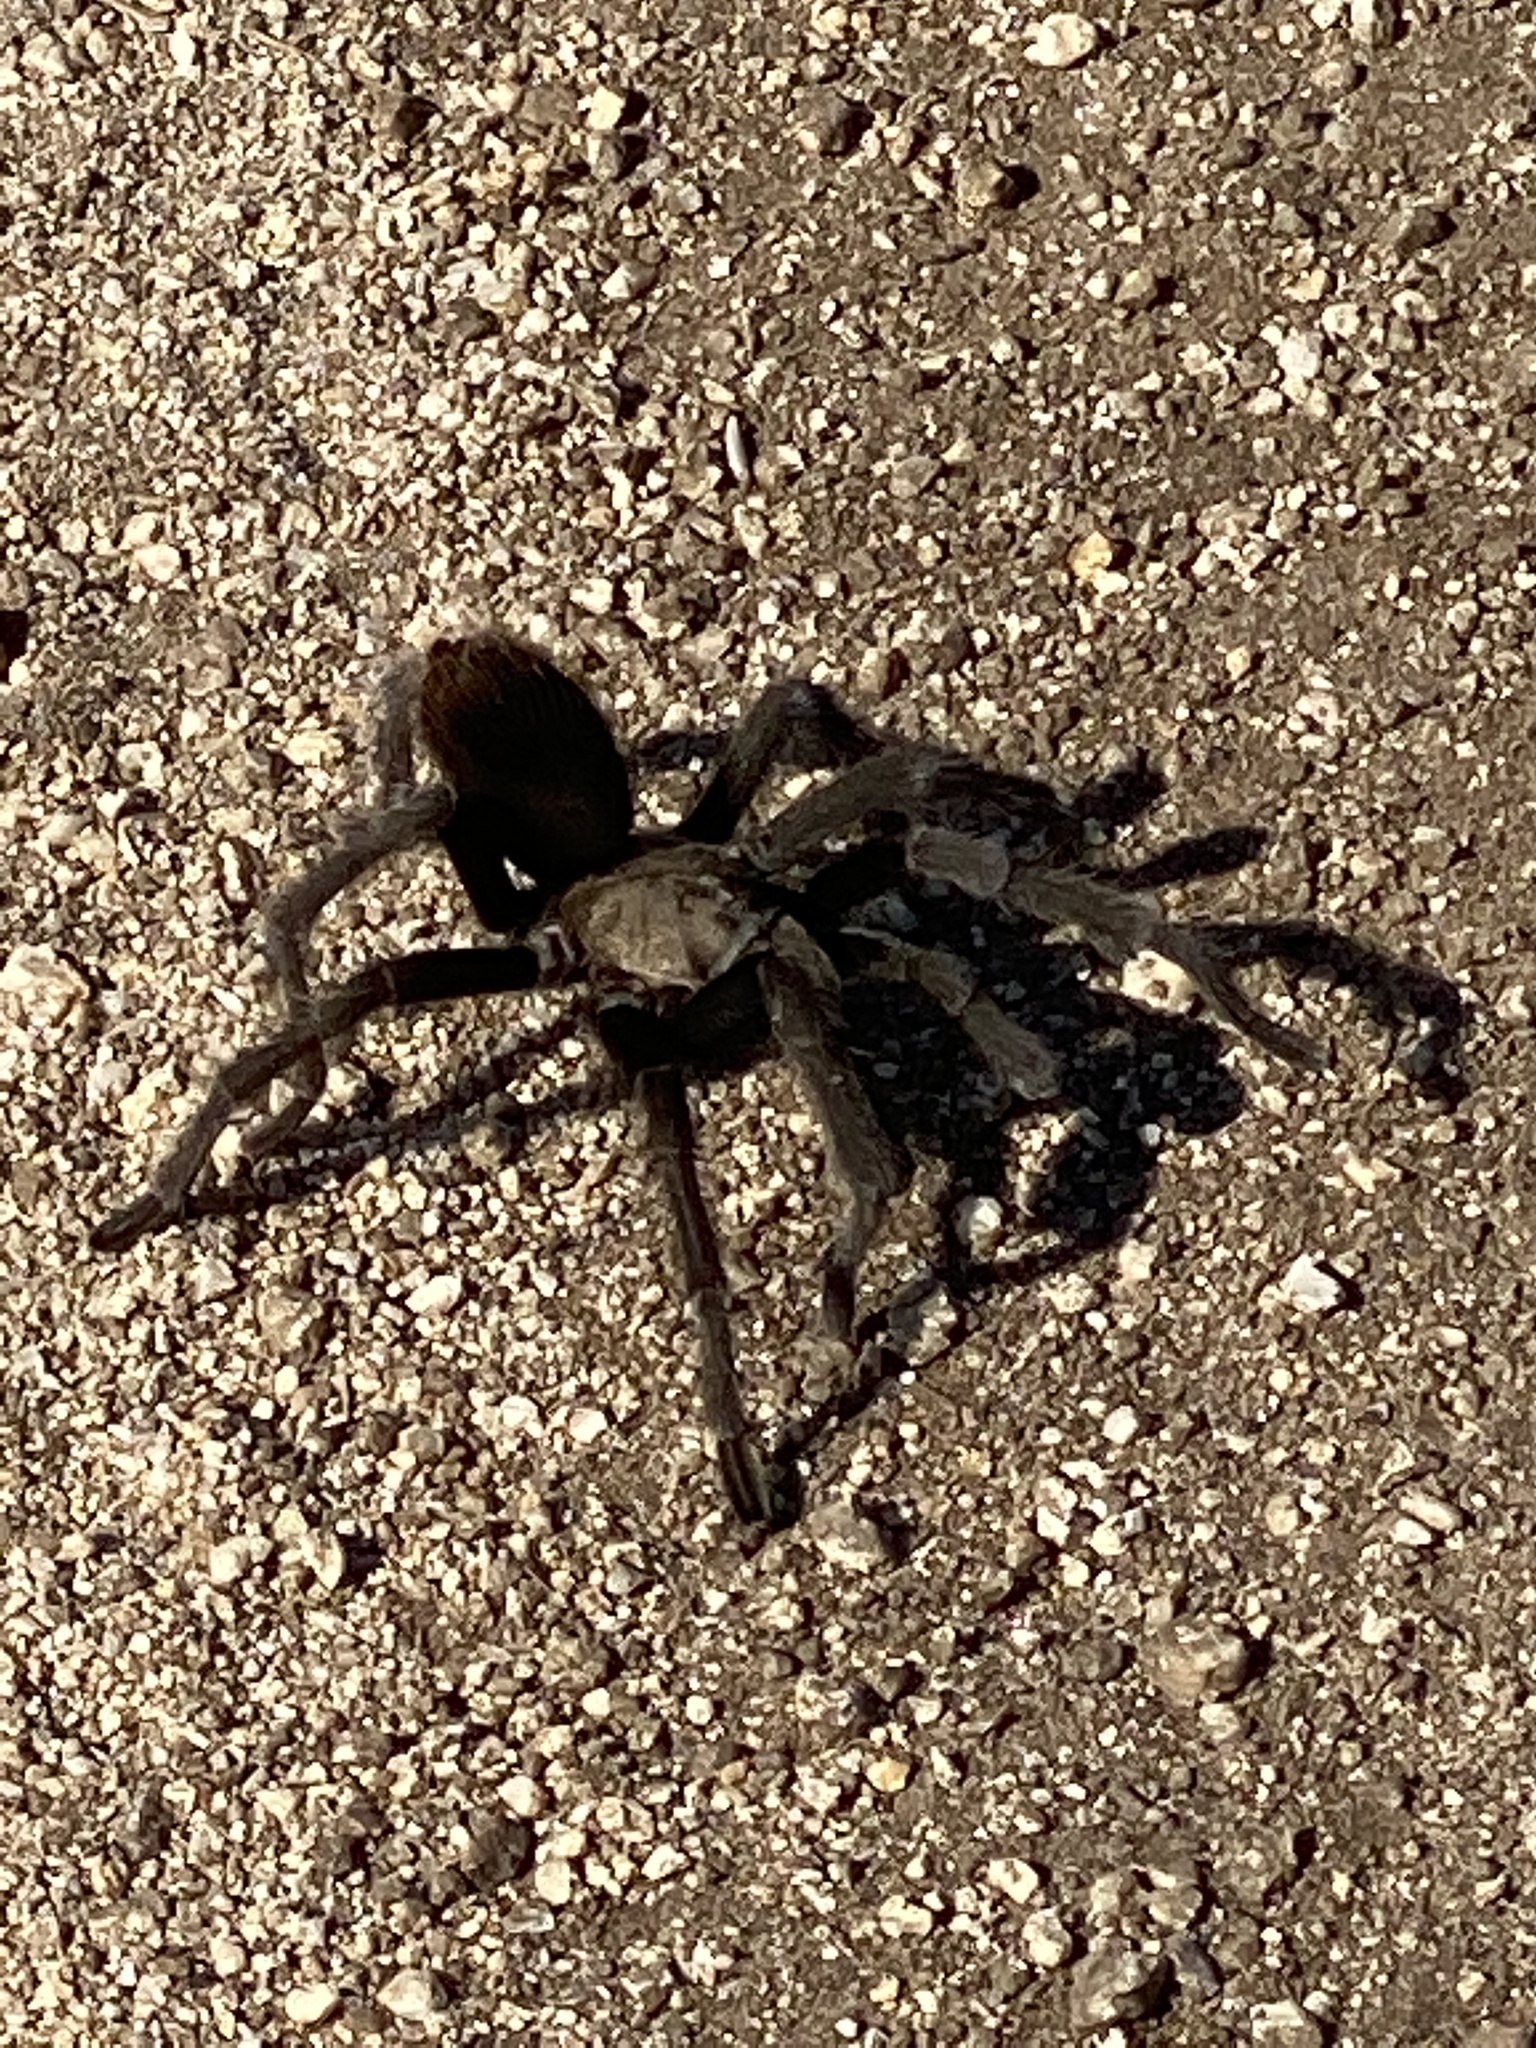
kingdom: Animalia
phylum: Arthropoda
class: Arachnida
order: Araneae
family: Theraphosidae
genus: Aphonopelma
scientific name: Aphonopelma iodius
